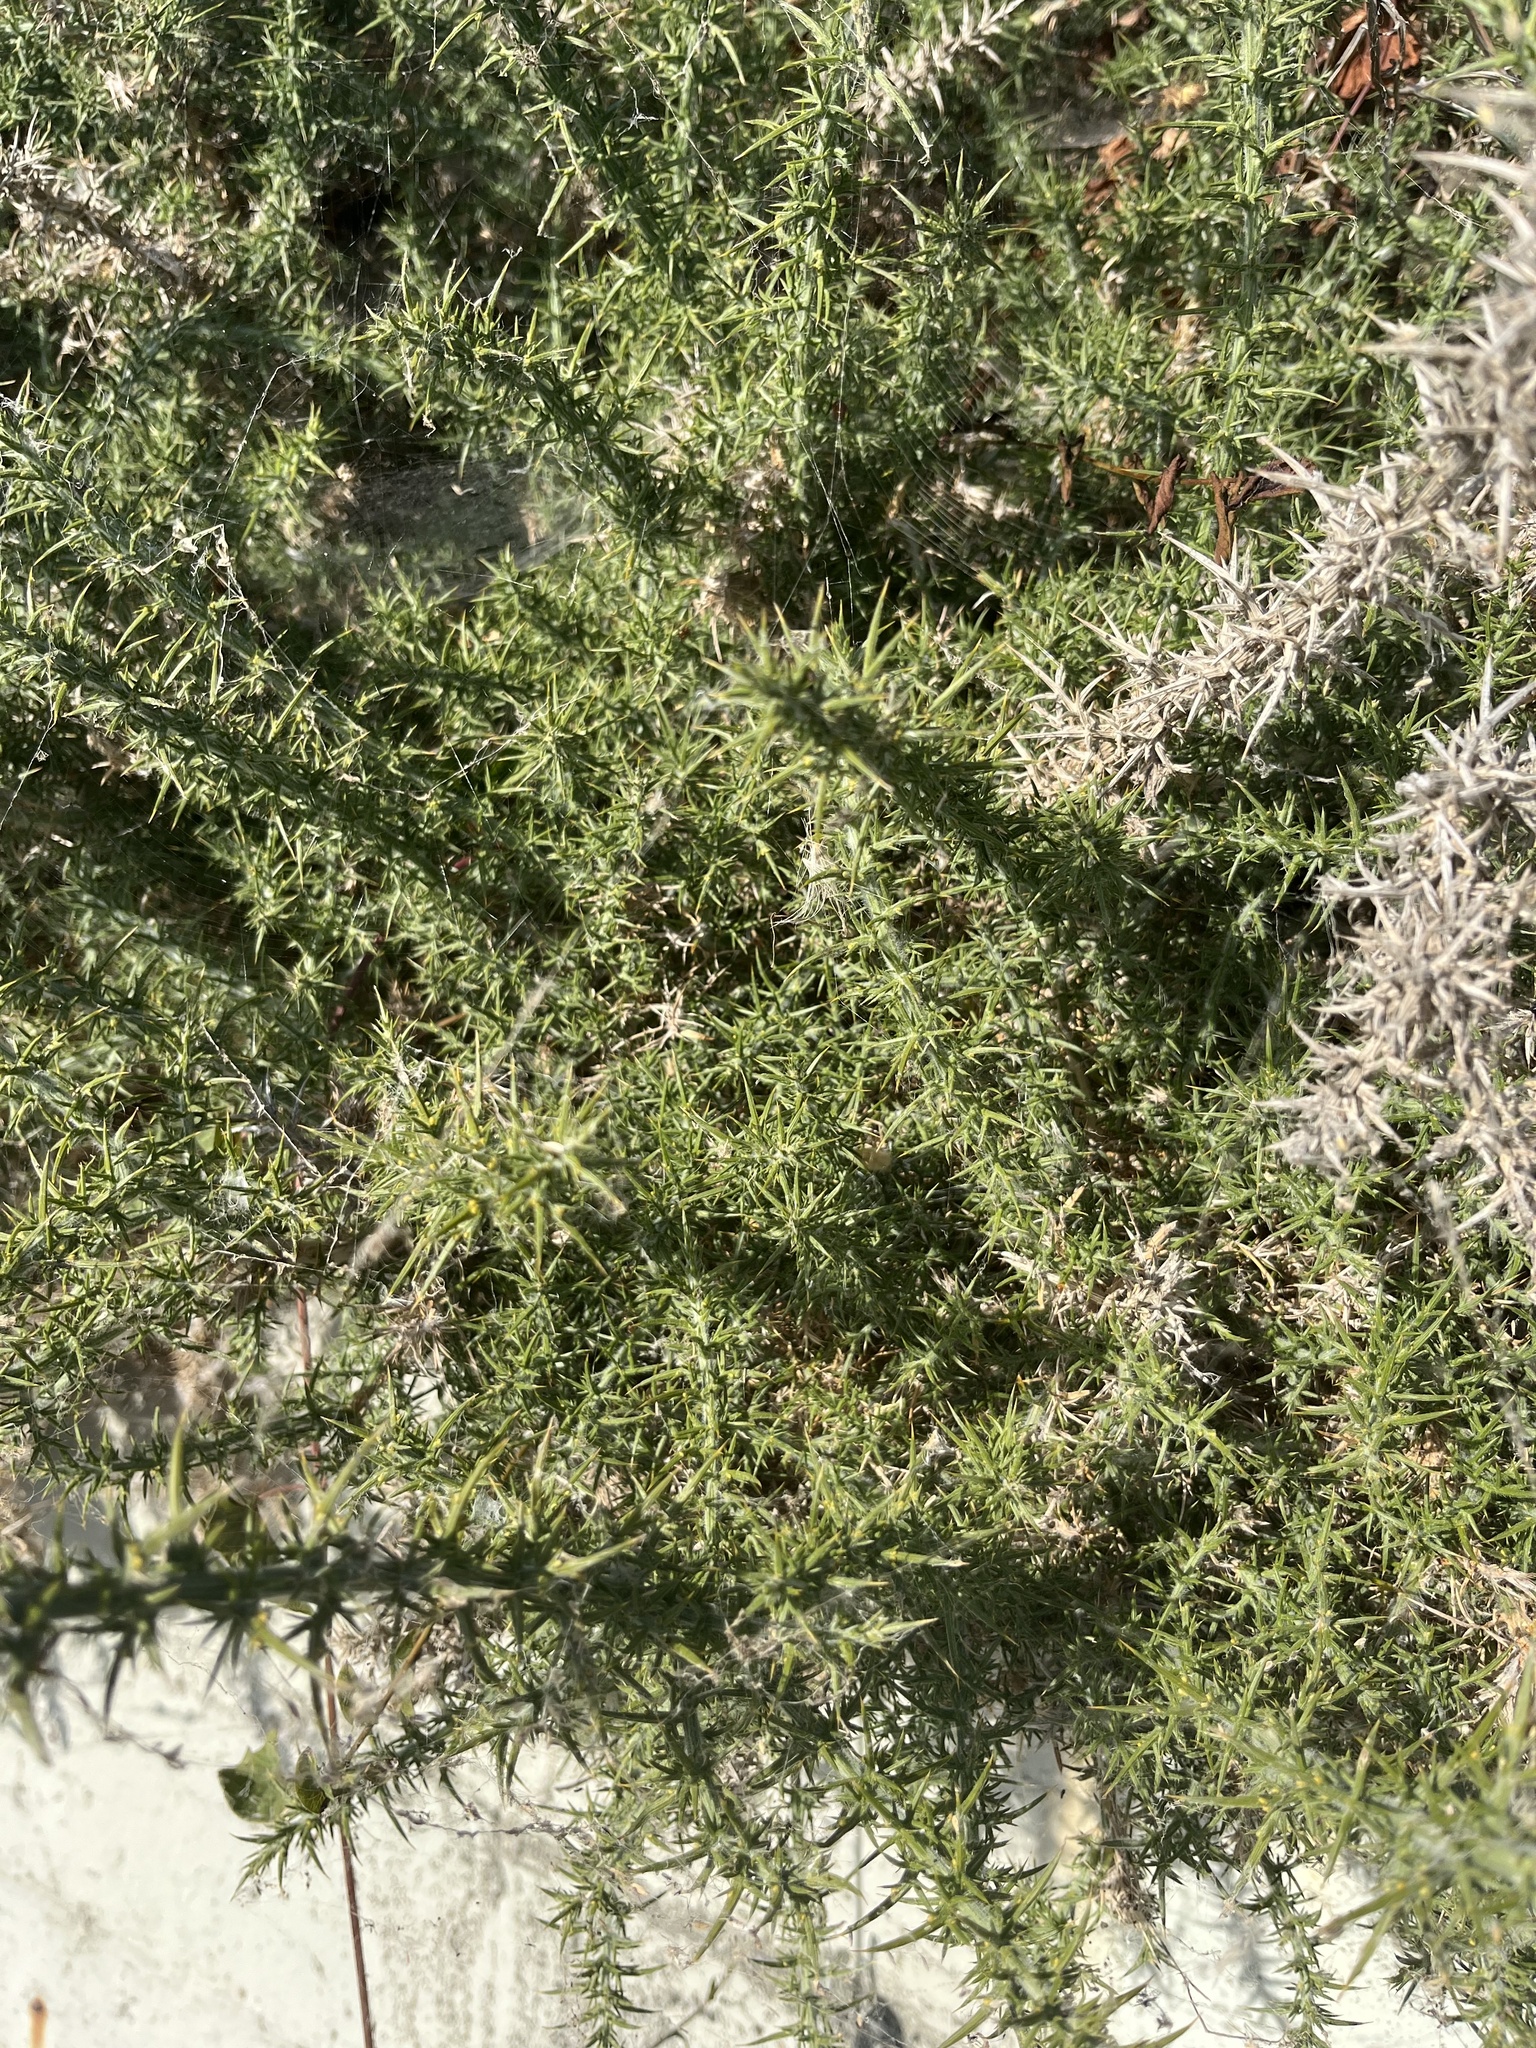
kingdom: Plantae
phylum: Tracheophyta
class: Magnoliopsida
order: Fabales
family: Fabaceae
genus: Ulex
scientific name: Ulex europaeus
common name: Common gorse
